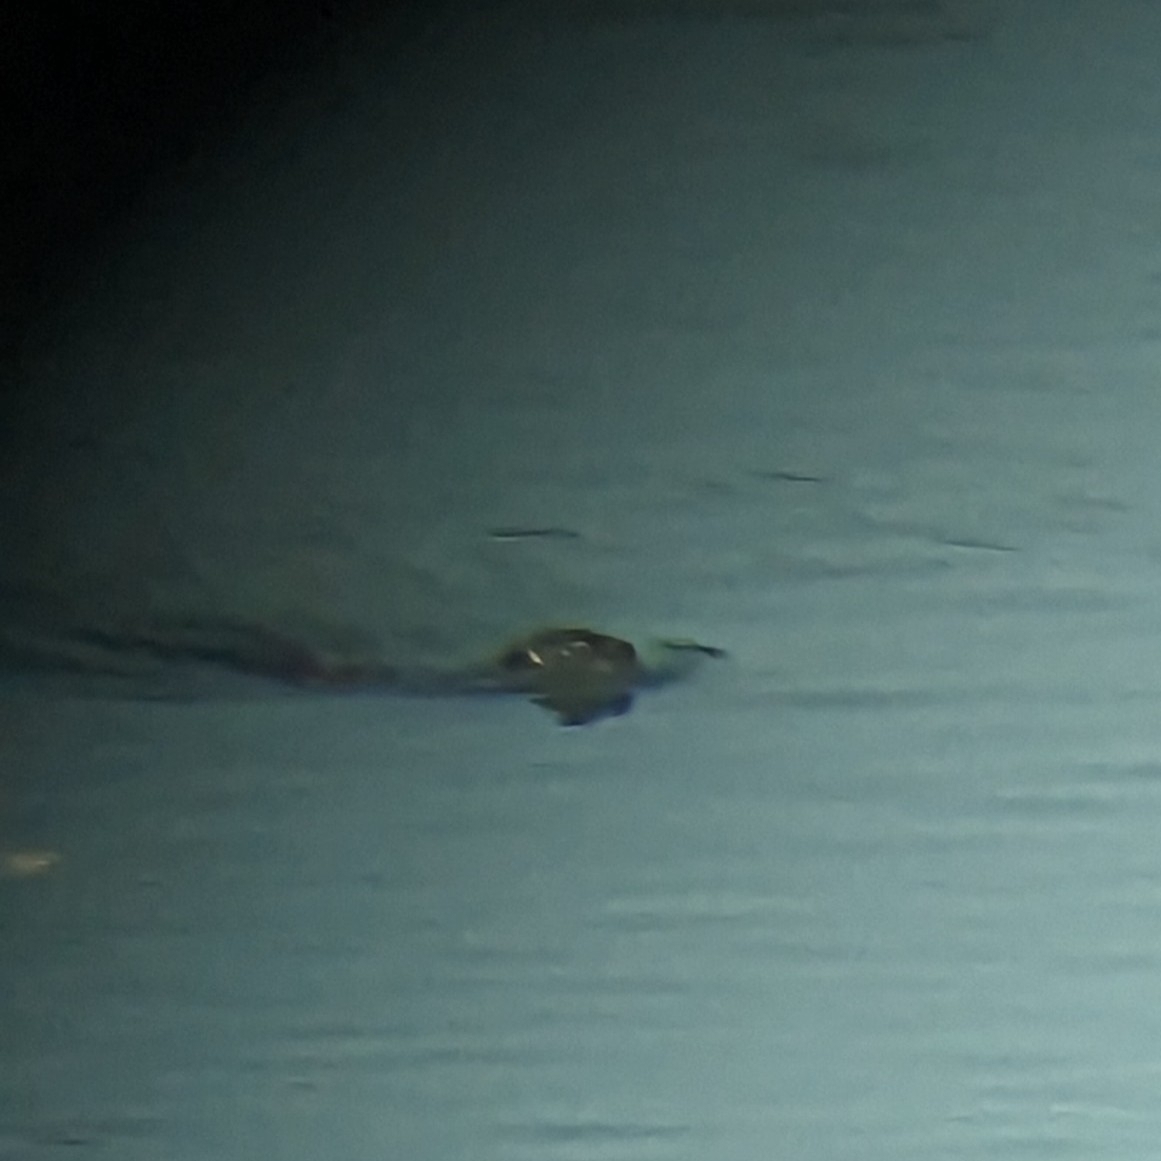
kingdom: Animalia
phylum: Chordata
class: Mammalia
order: Carnivora
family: Mustelidae
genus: Lutrogale
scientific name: Lutrogale perspicillata
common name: Smooth-coated otter
